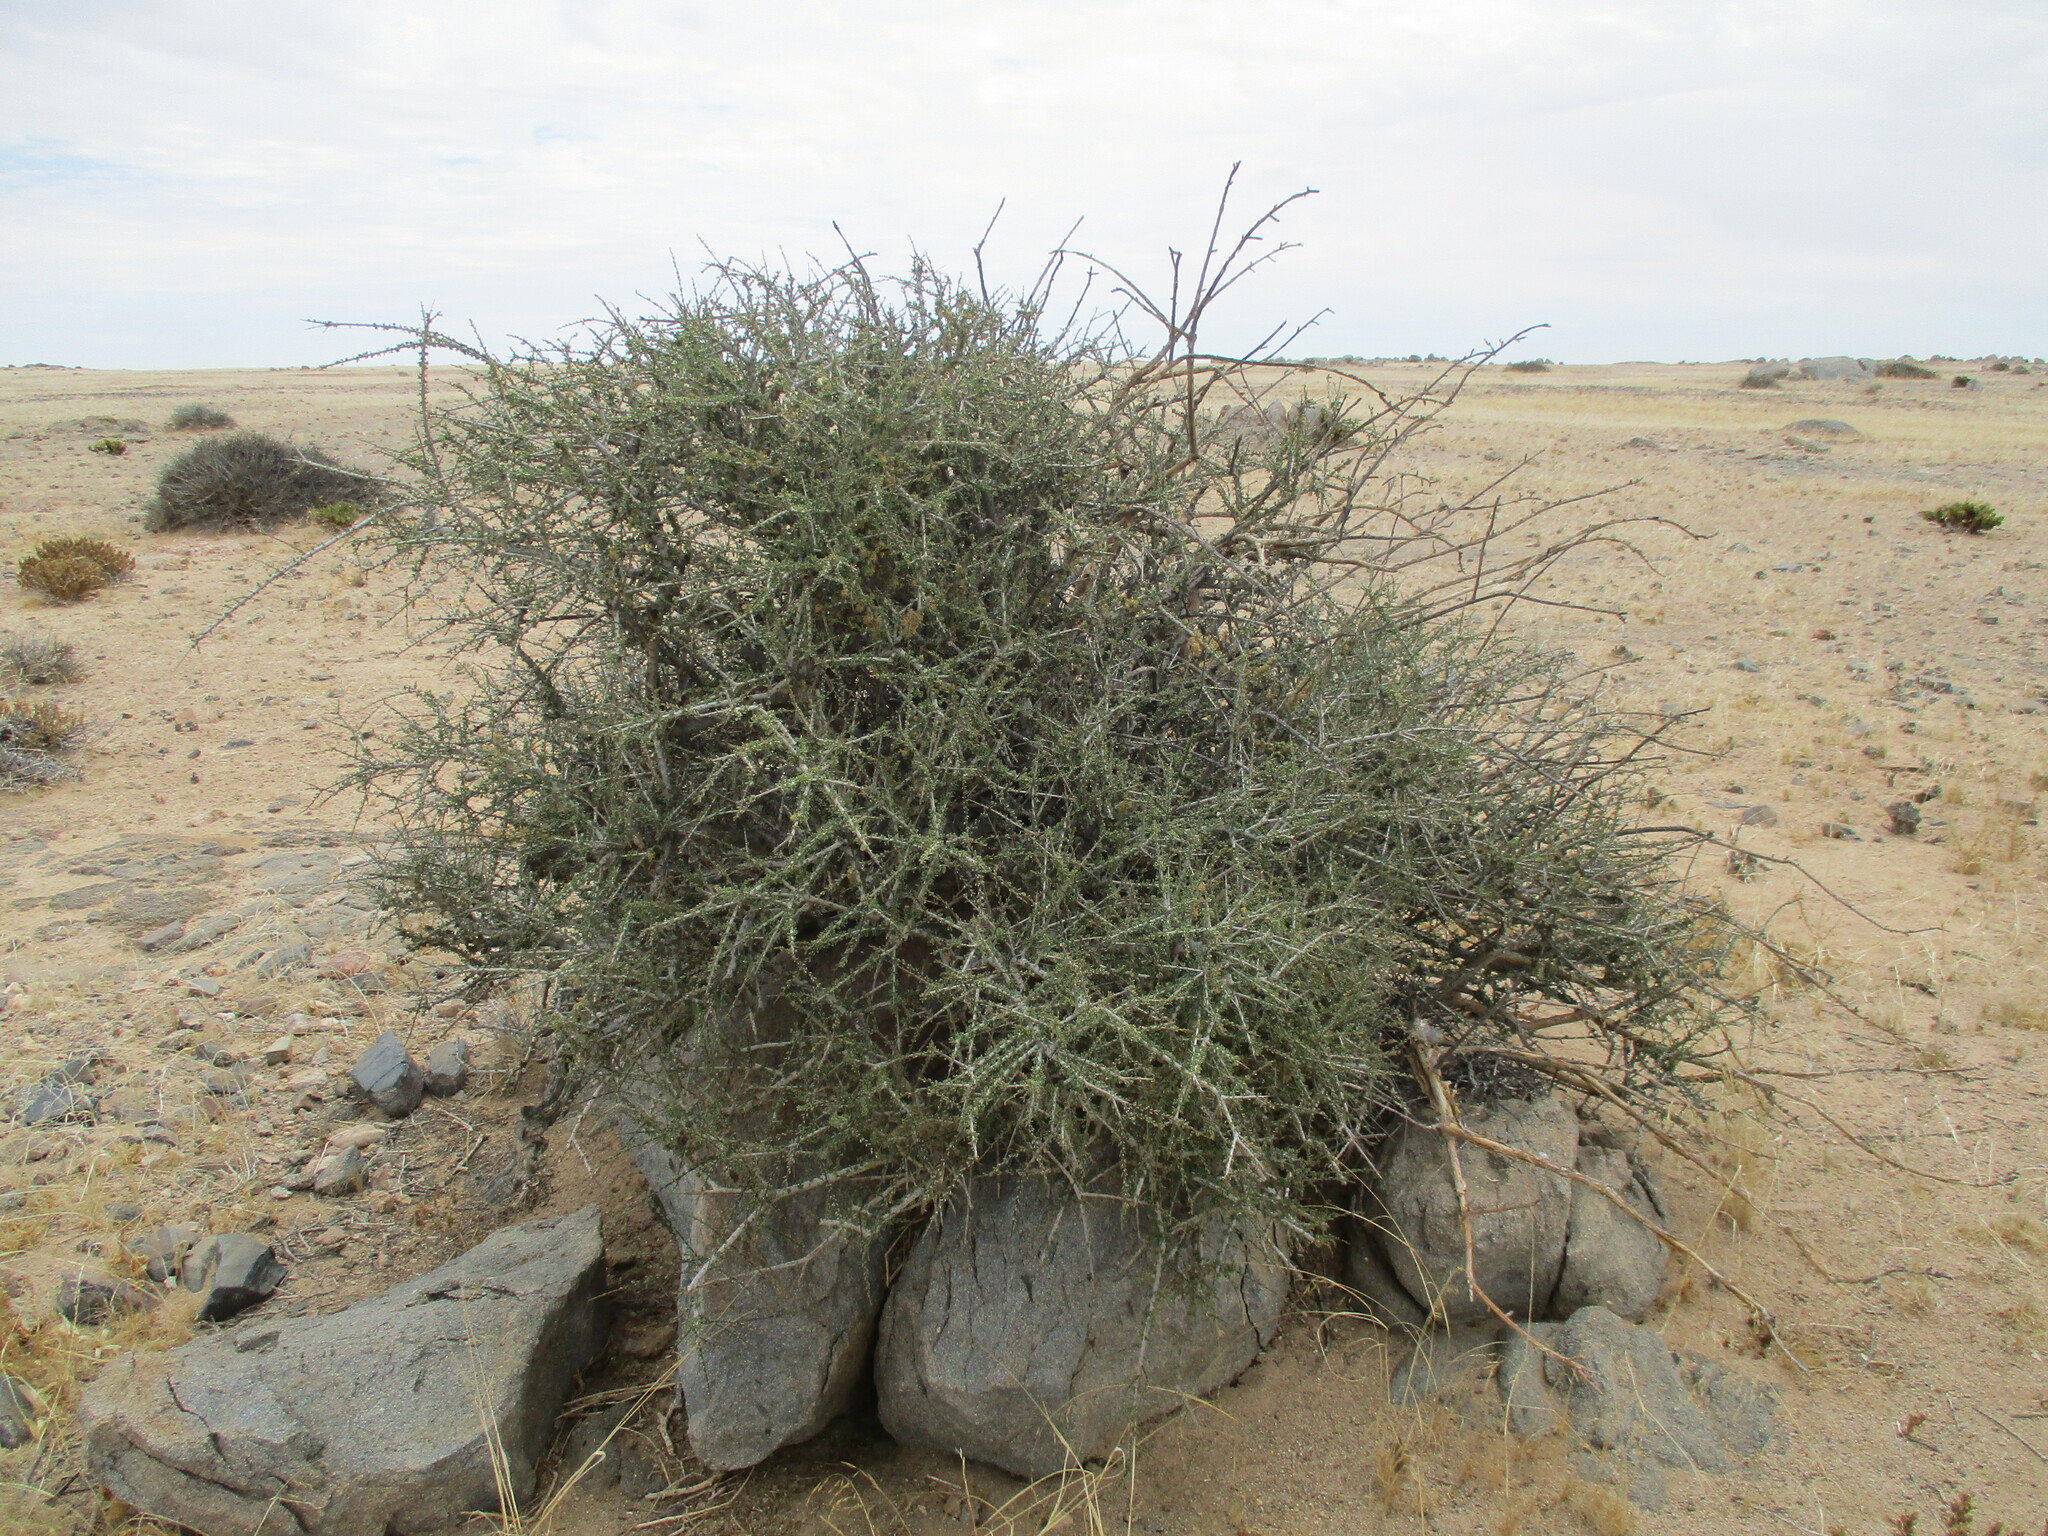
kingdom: Plantae
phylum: Tracheophyta
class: Magnoliopsida
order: Brassicales
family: Capparaceae
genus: Boscia
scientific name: Boscia foetida
